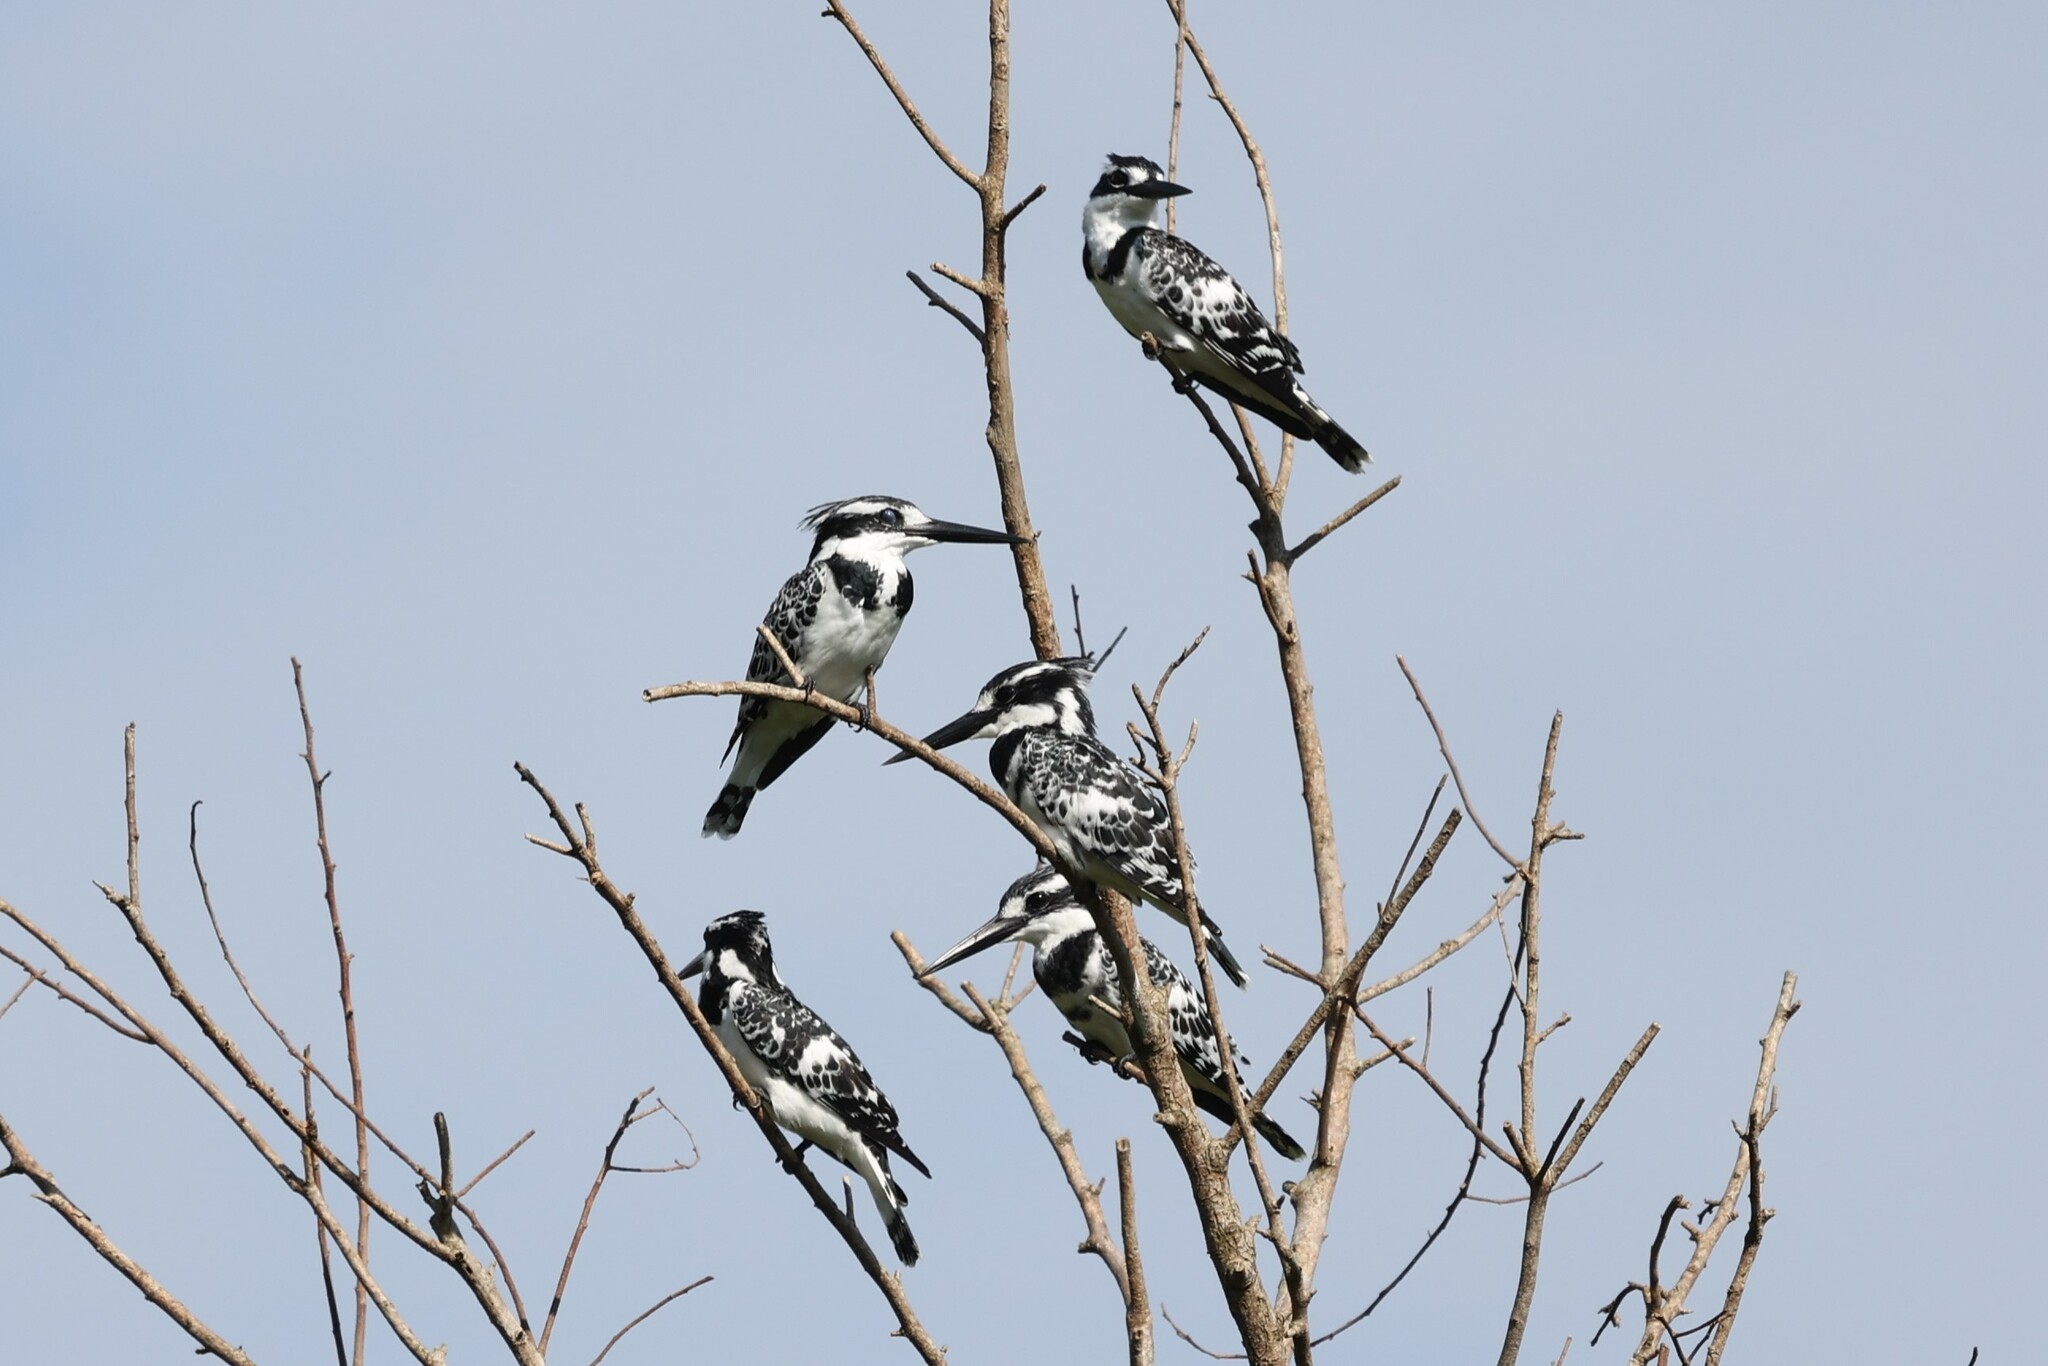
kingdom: Animalia
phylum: Chordata
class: Aves
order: Coraciiformes
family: Alcedinidae
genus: Ceryle
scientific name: Ceryle rudis
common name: Pied kingfisher
